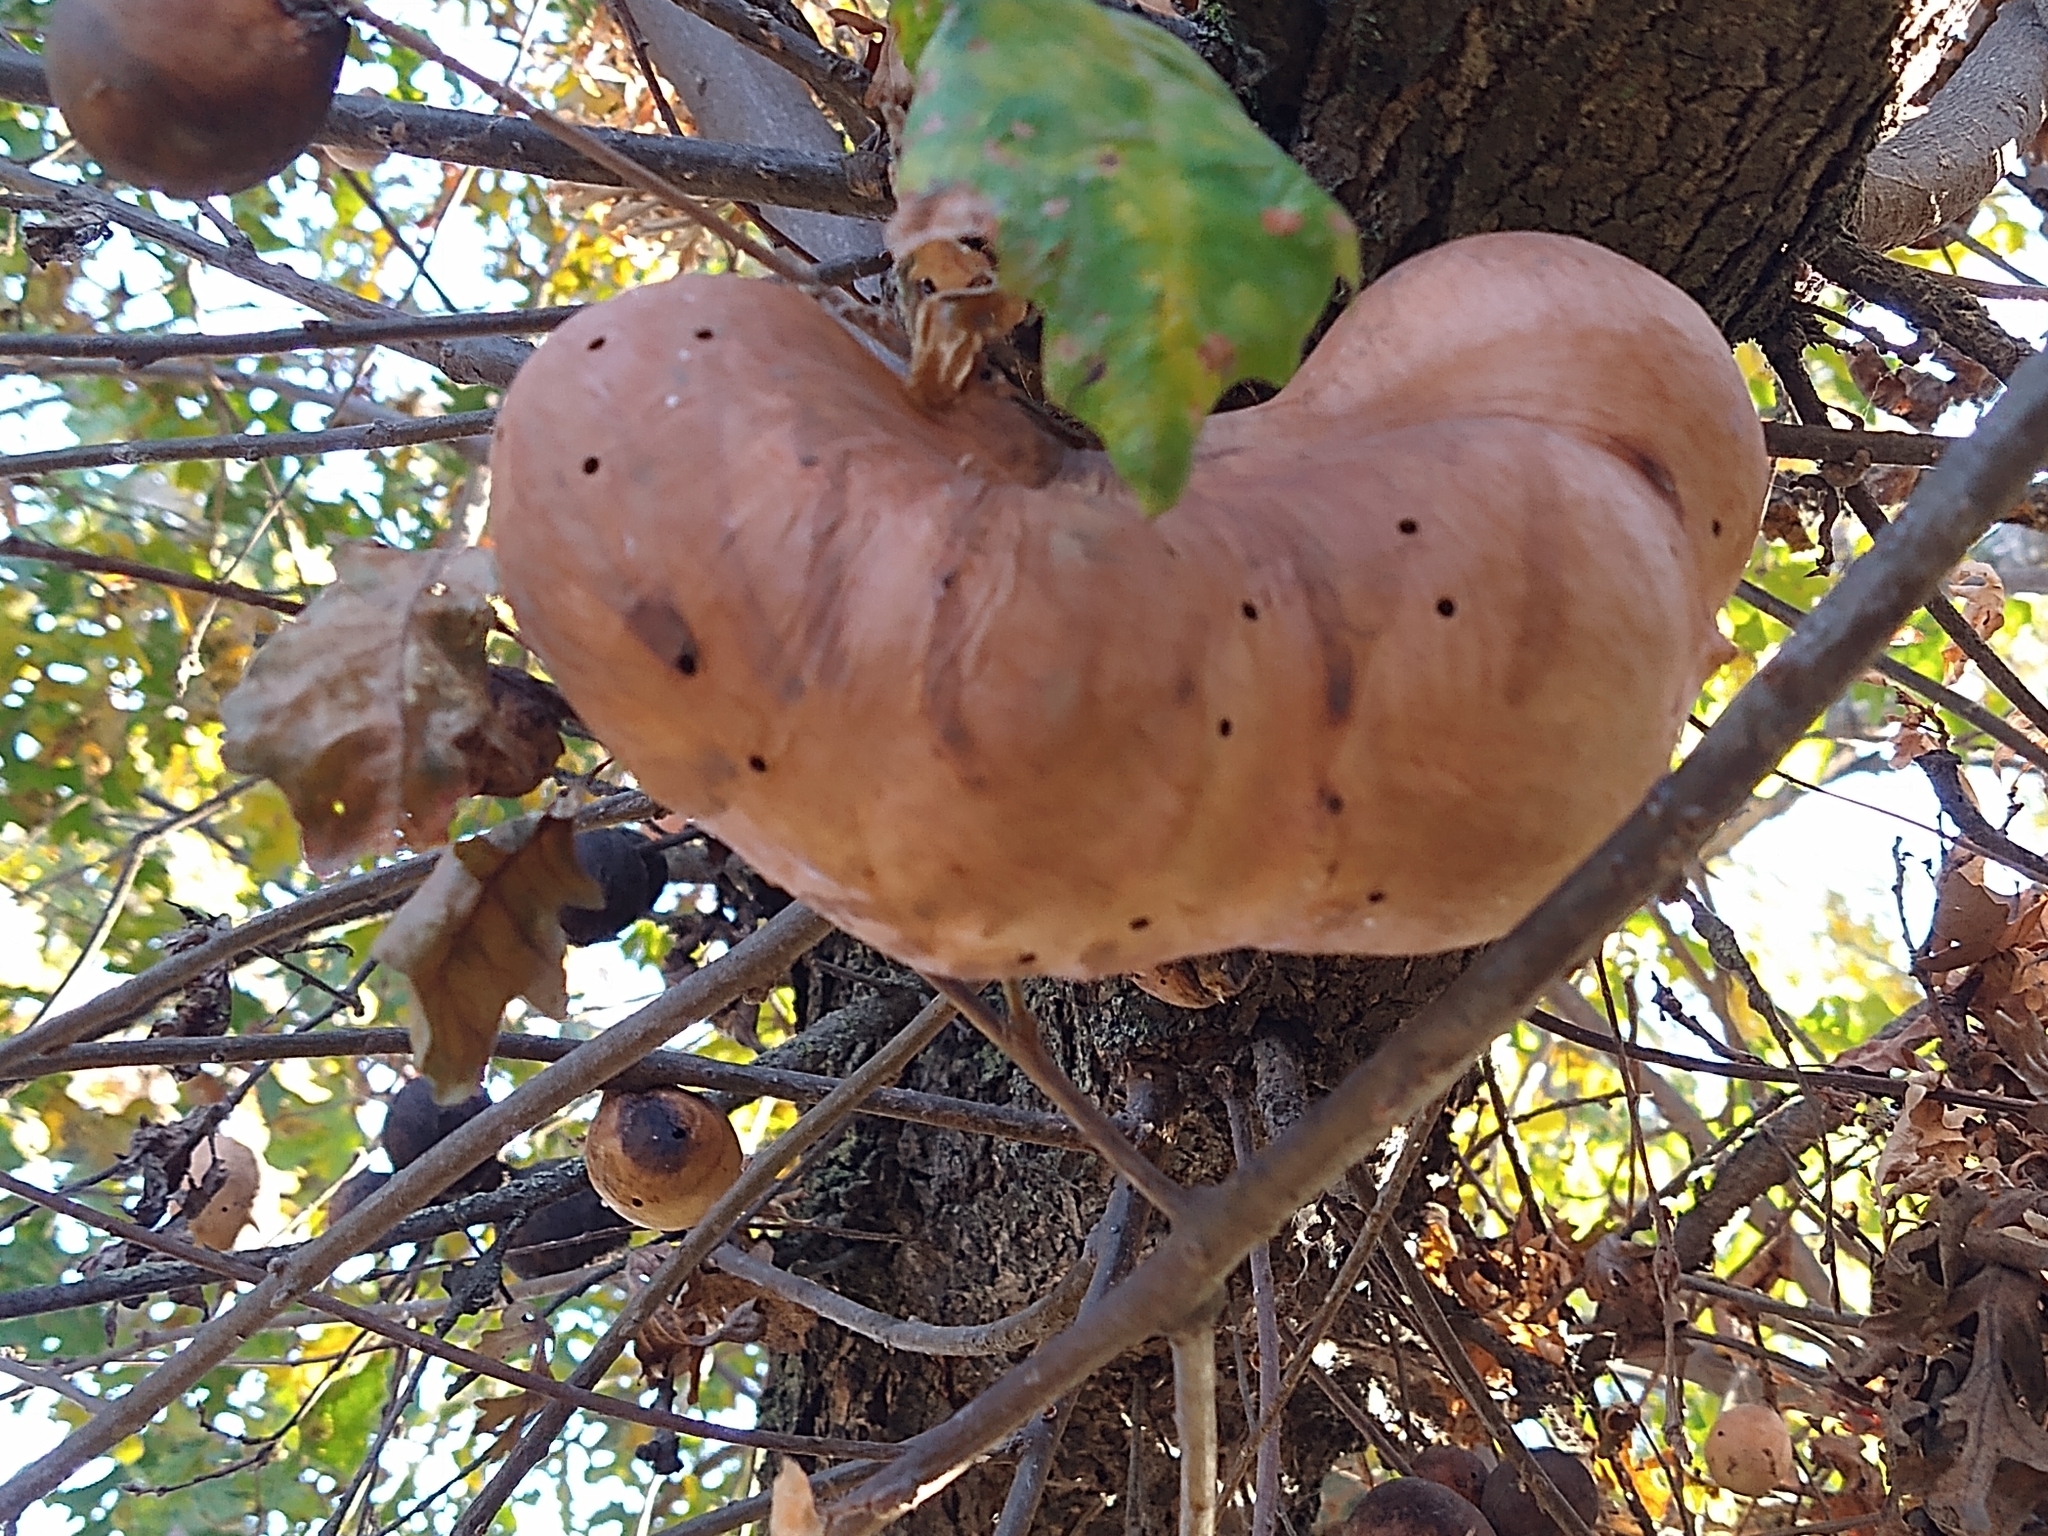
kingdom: Animalia
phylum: Arthropoda
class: Insecta
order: Hymenoptera
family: Cynipidae
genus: Andricus
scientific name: Andricus quercuscalifornicus
